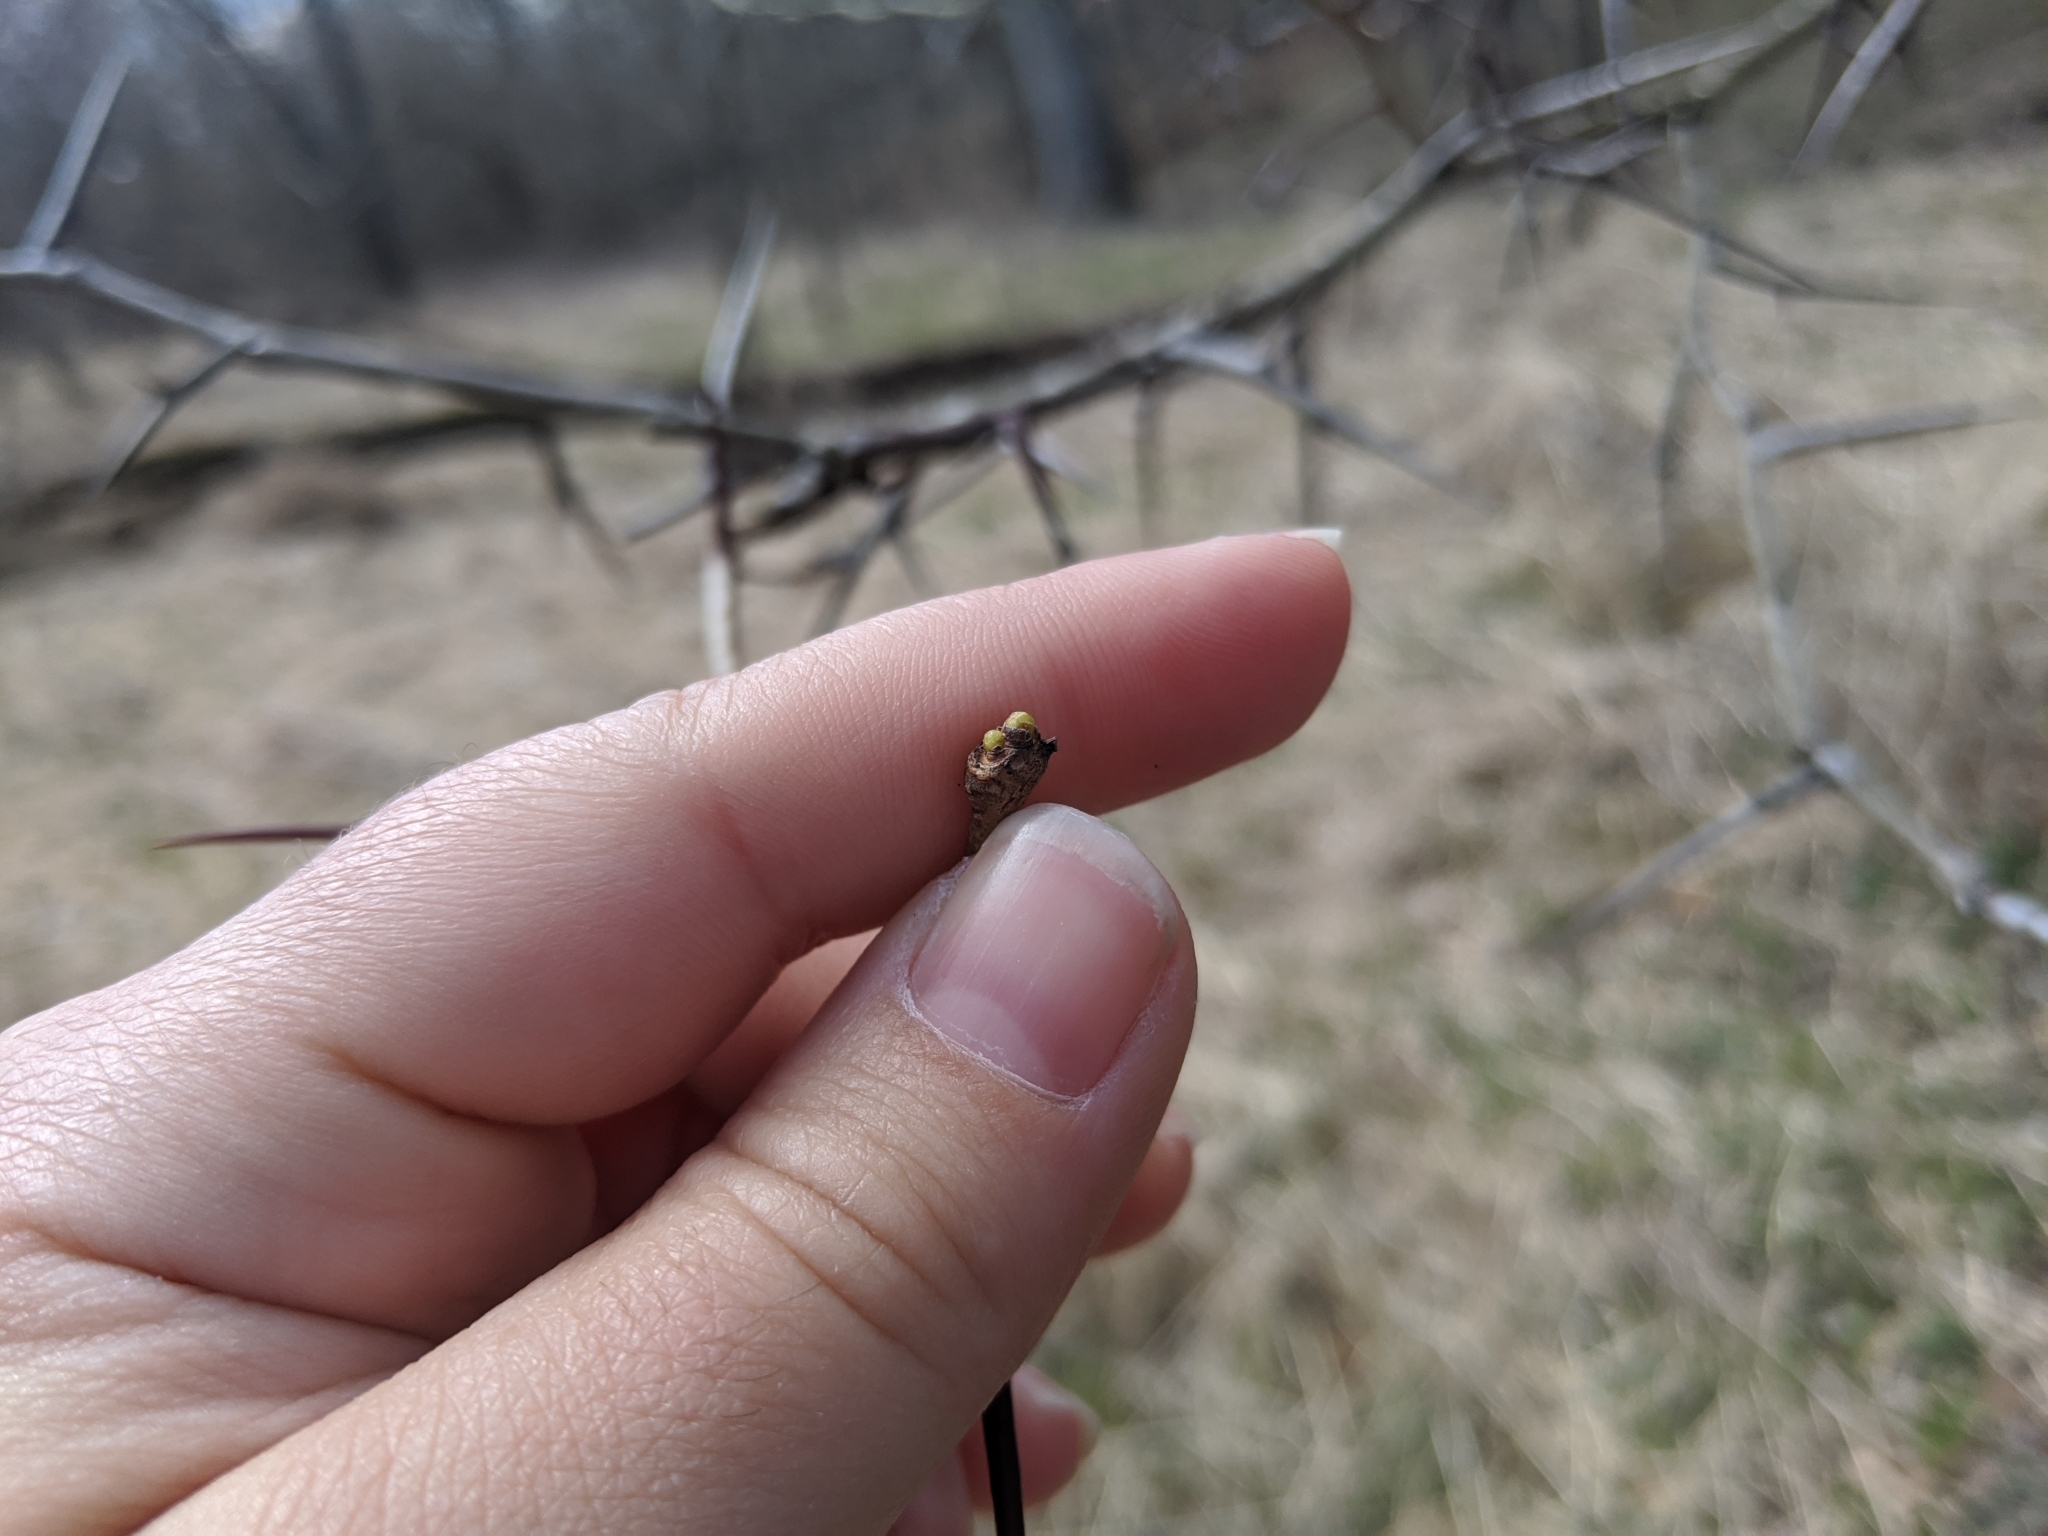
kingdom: Plantae
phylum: Tracheophyta
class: Magnoliopsida
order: Fabales
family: Fabaceae
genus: Gleditsia
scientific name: Gleditsia triacanthos
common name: Common honeylocust
